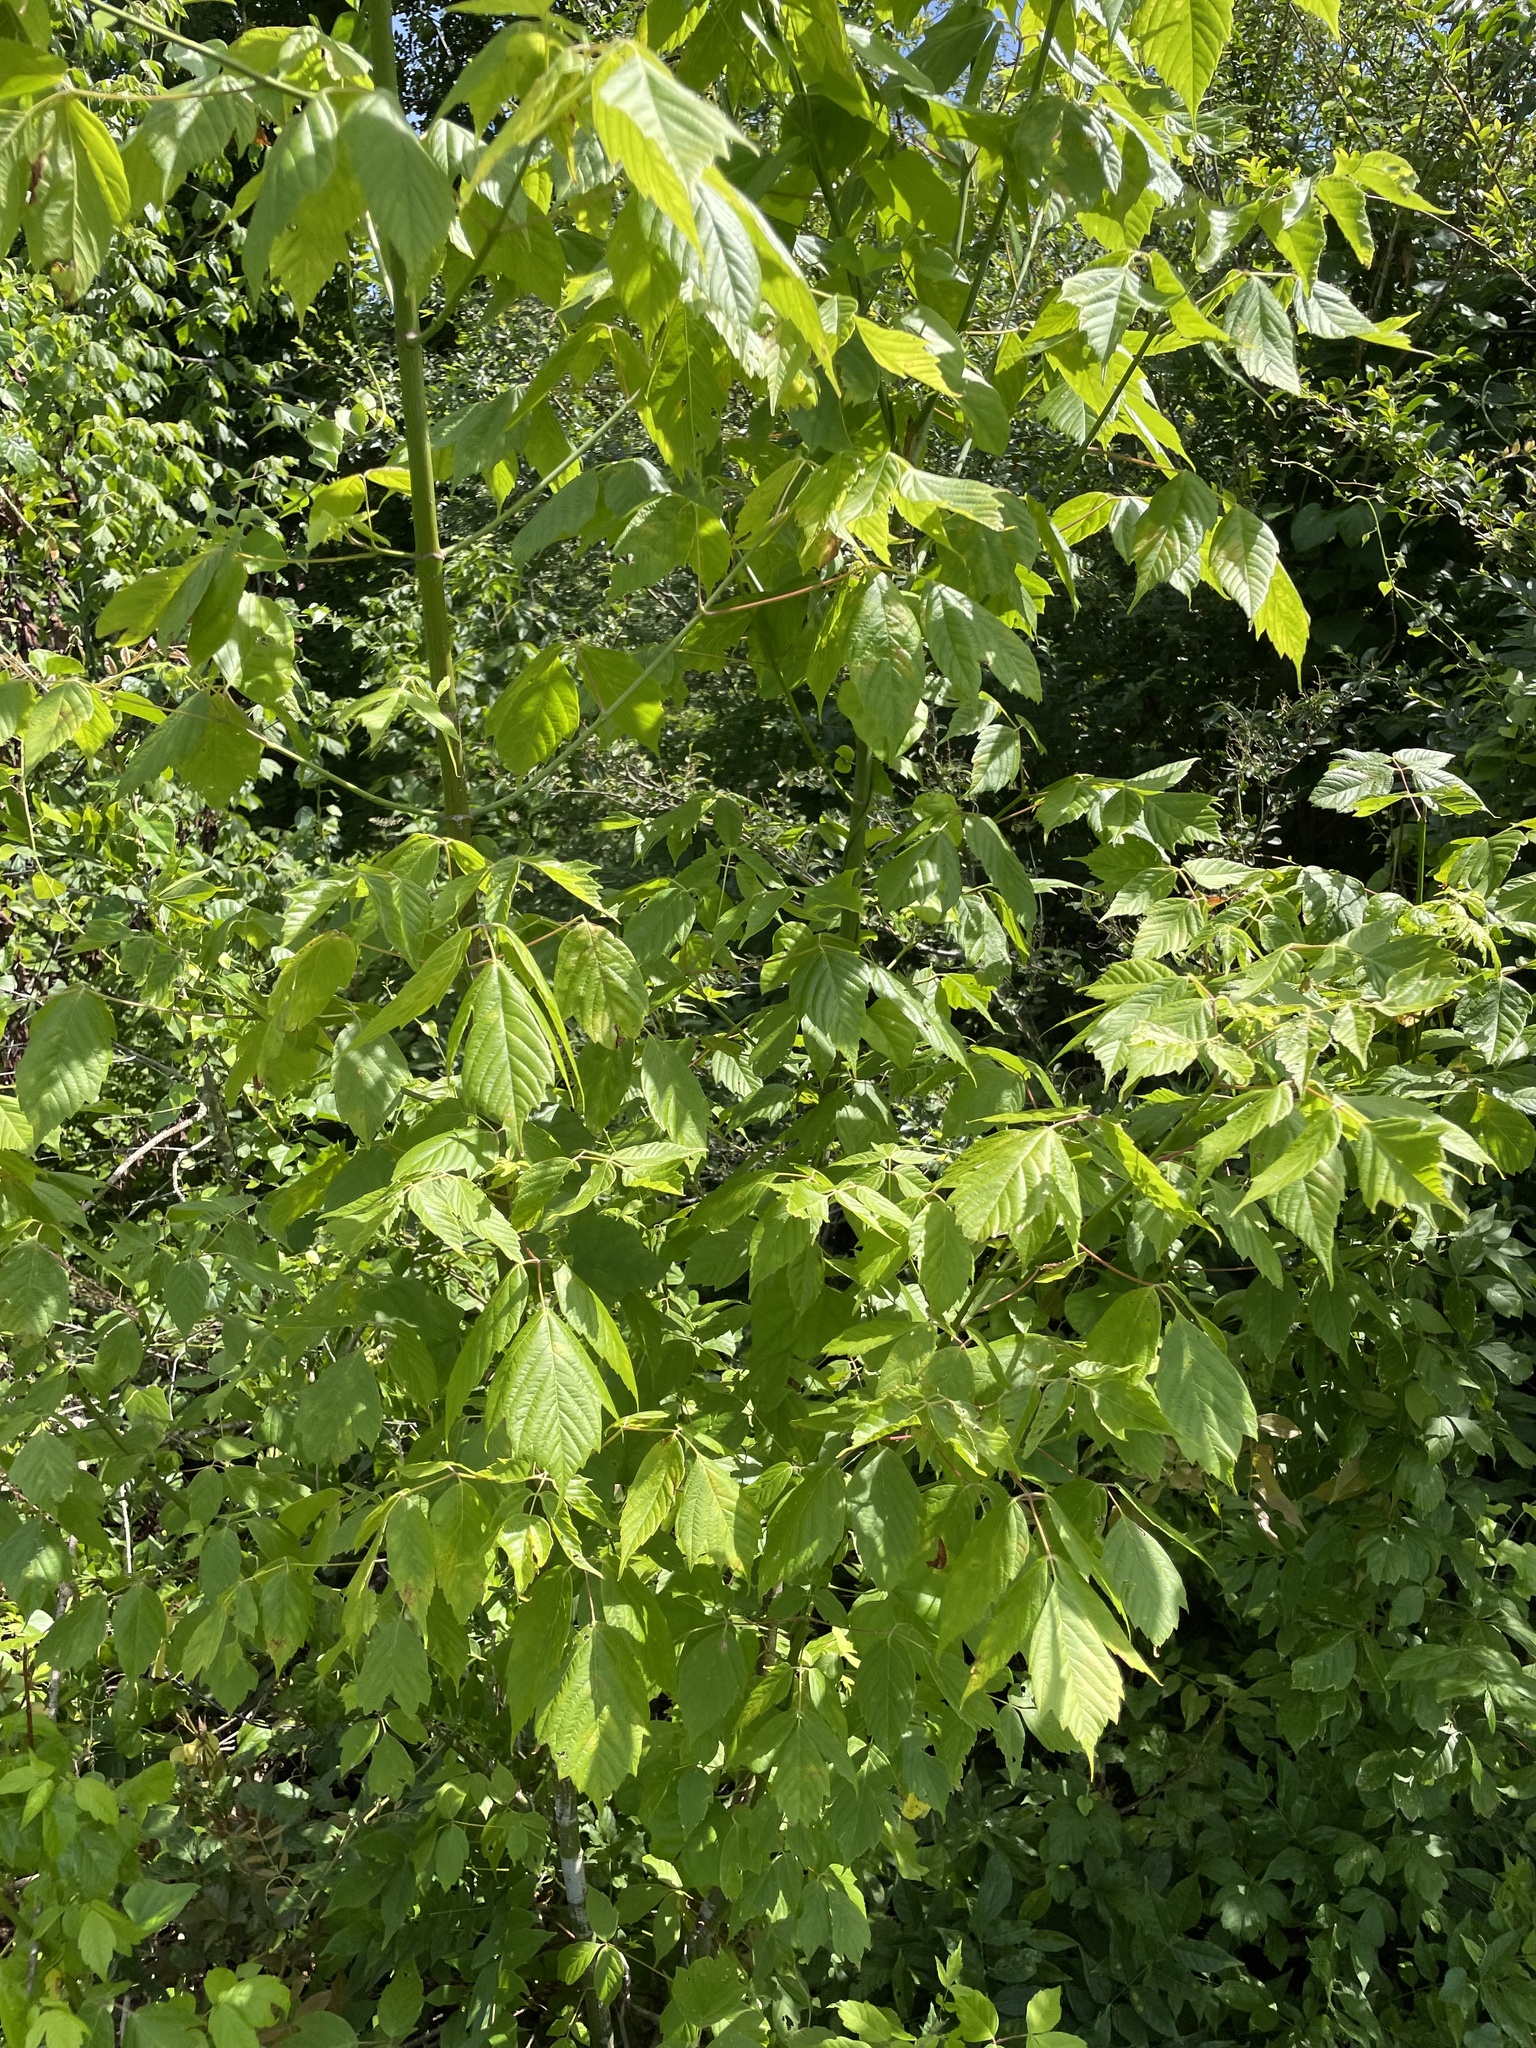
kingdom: Plantae
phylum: Tracheophyta
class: Magnoliopsida
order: Sapindales
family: Sapindaceae
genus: Acer
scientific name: Acer negundo
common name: Ashleaf maple
